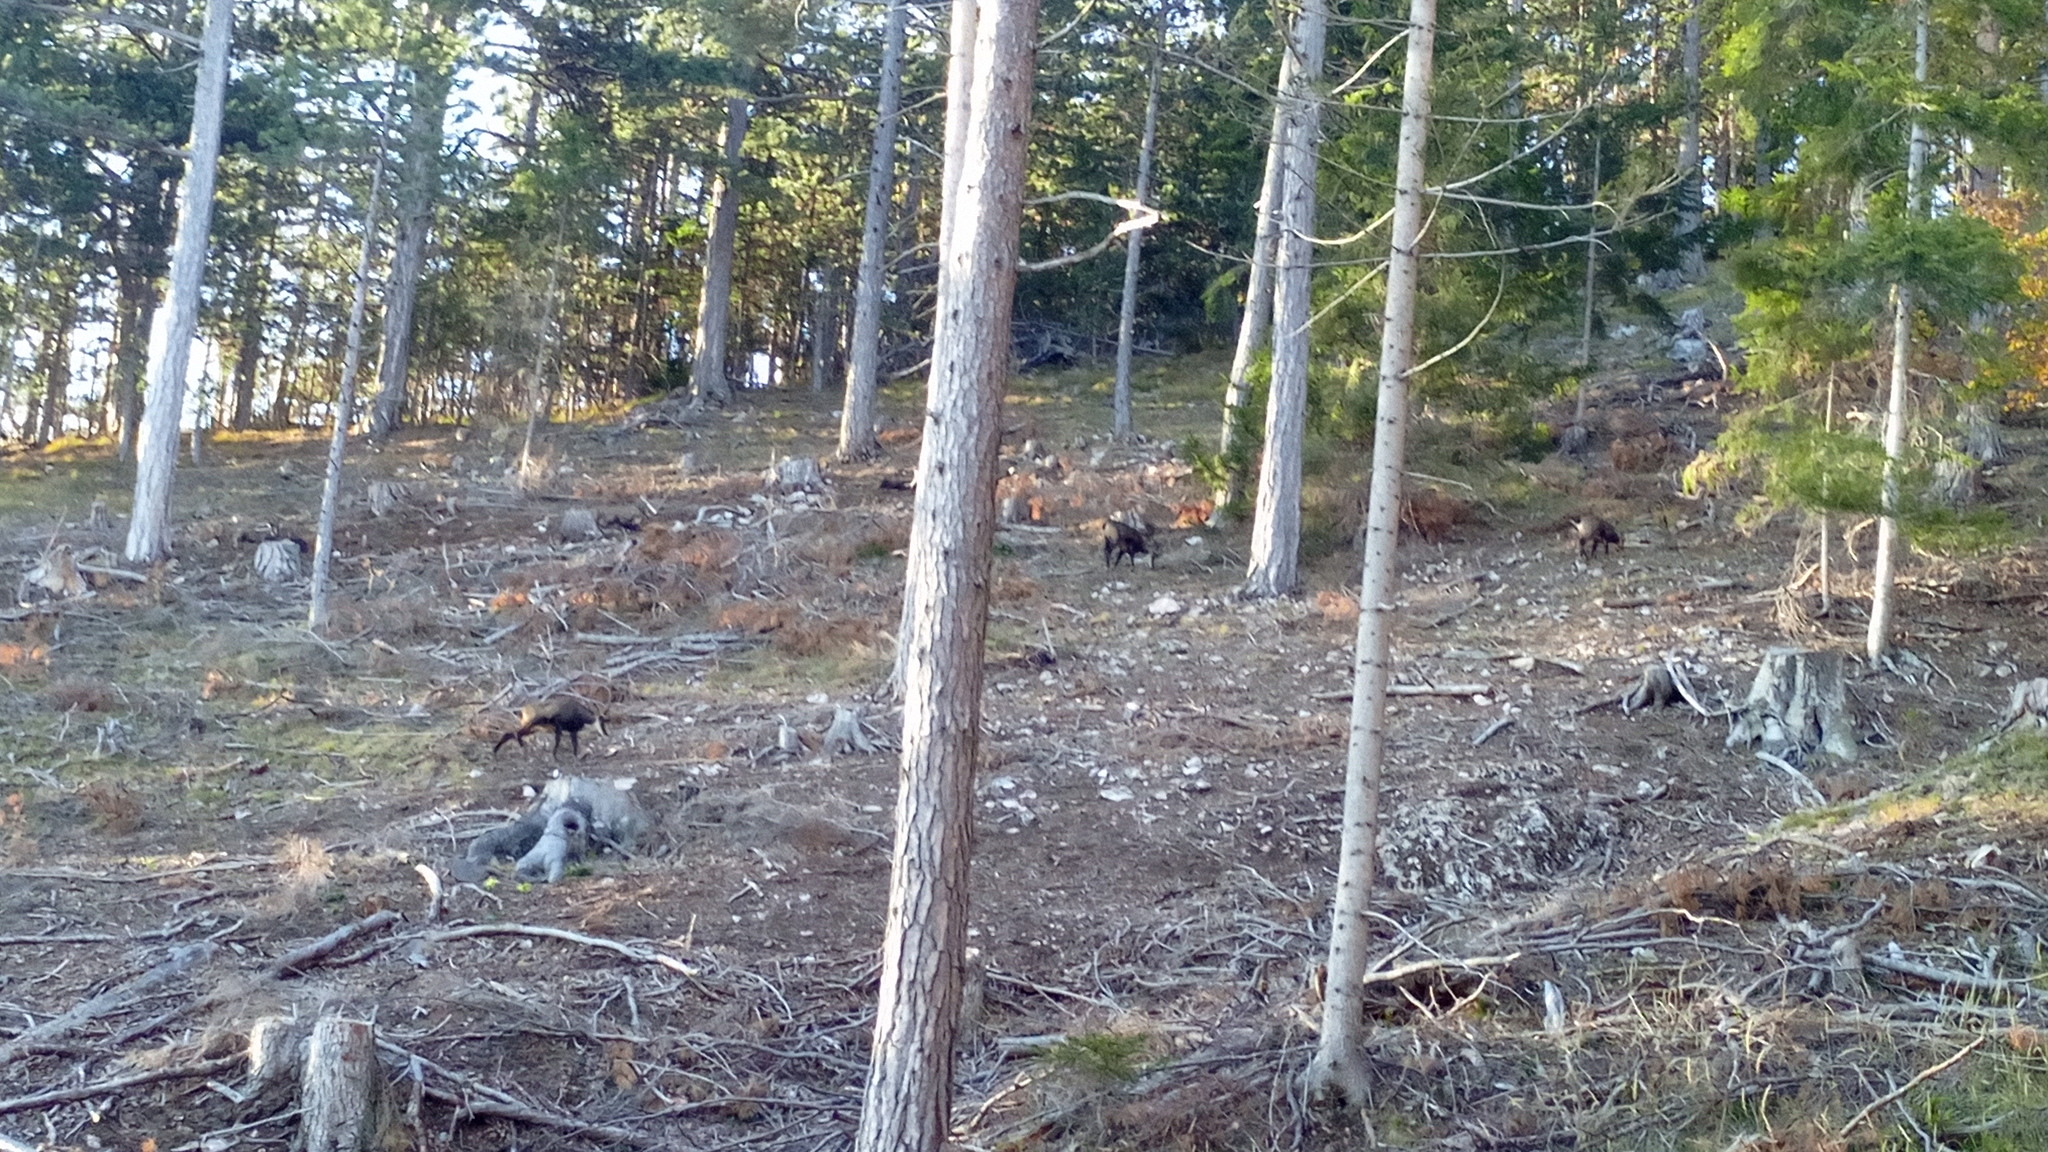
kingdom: Animalia
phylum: Chordata
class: Mammalia
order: Artiodactyla
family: Bovidae
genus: Rupicapra
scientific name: Rupicapra rupicapra
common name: Chamois
